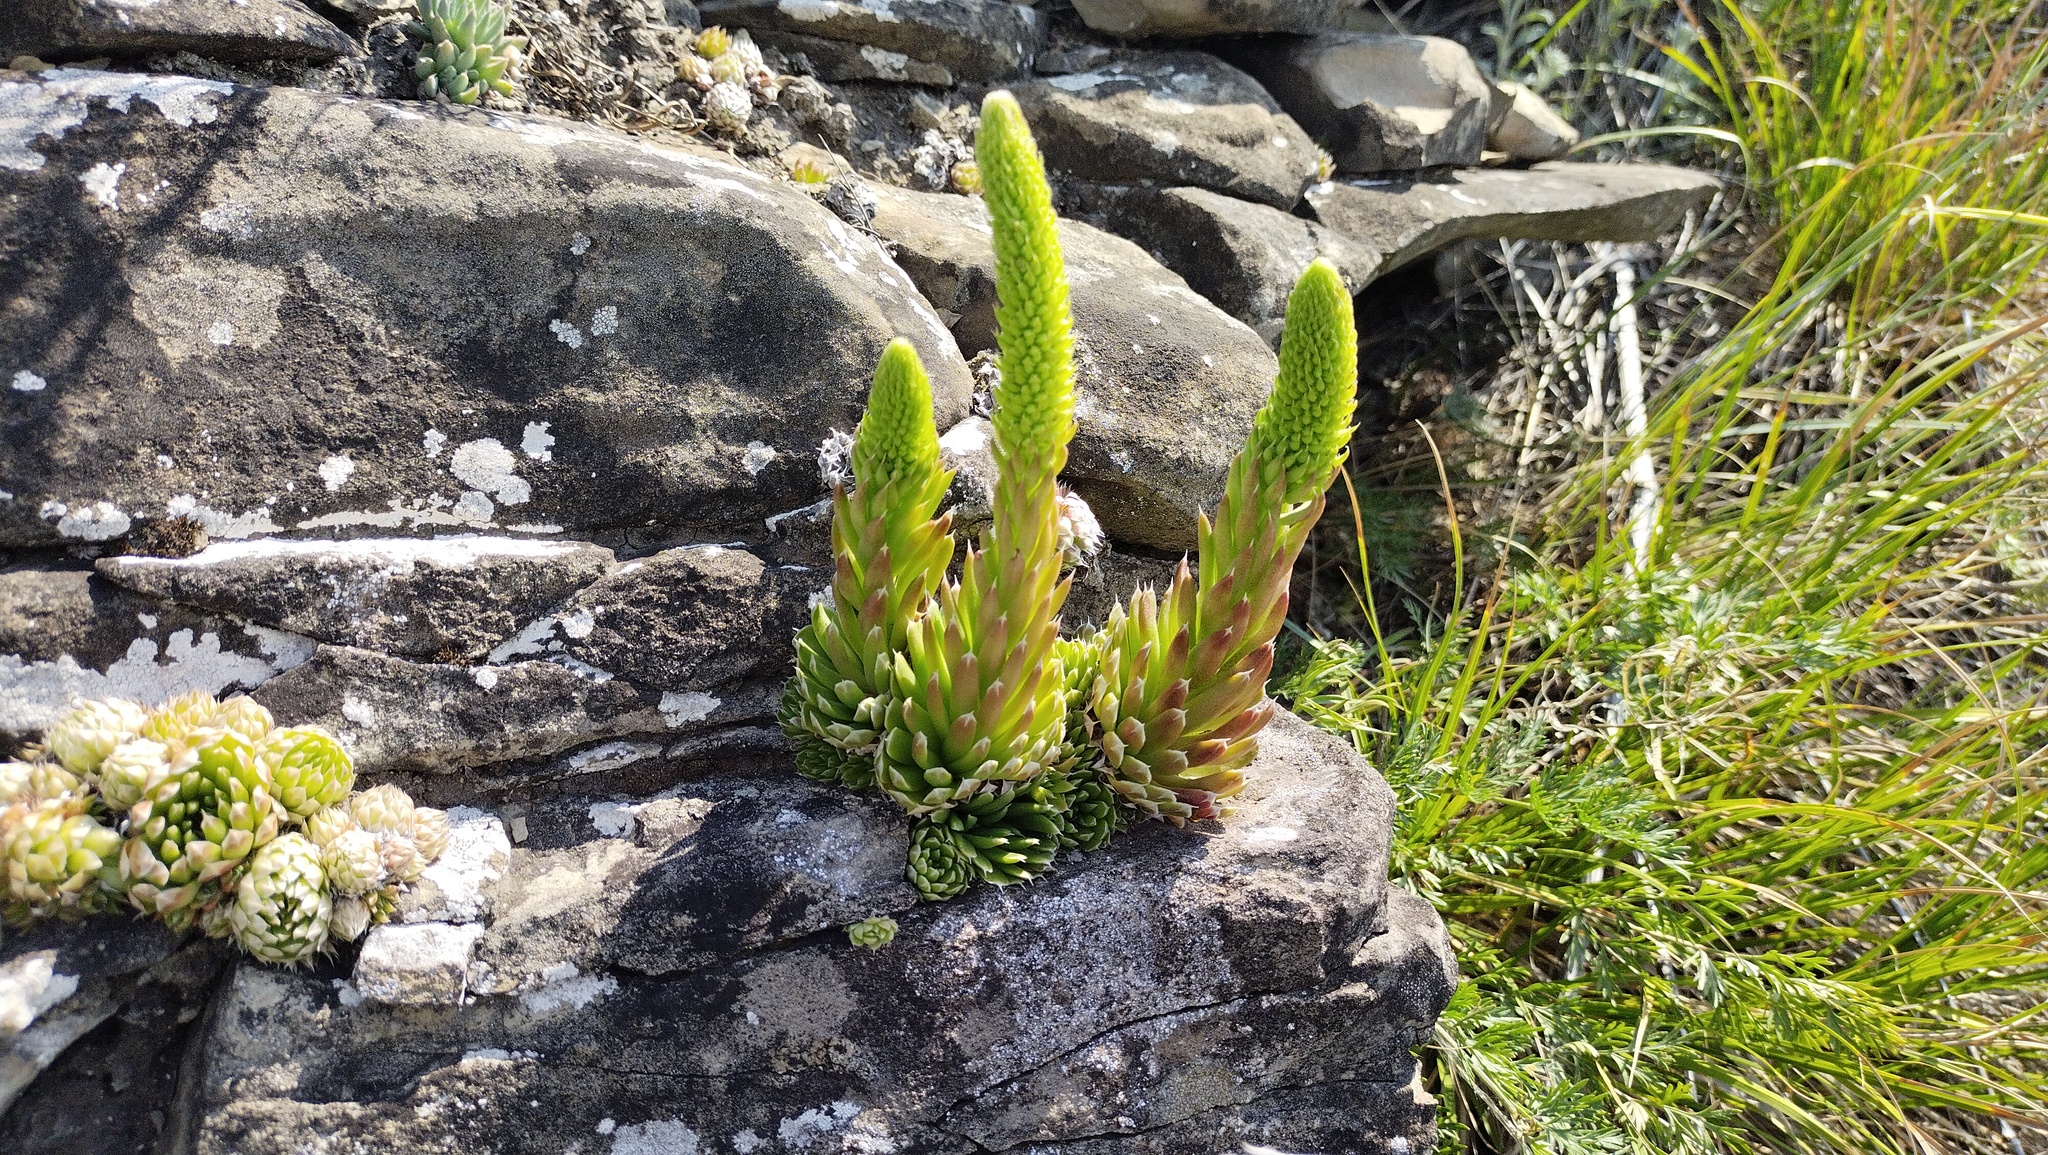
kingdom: Plantae
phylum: Tracheophyta
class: Magnoliopsida
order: Saxifragales
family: Crassulaceae
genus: Orostachys
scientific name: Orostachys spinosa
